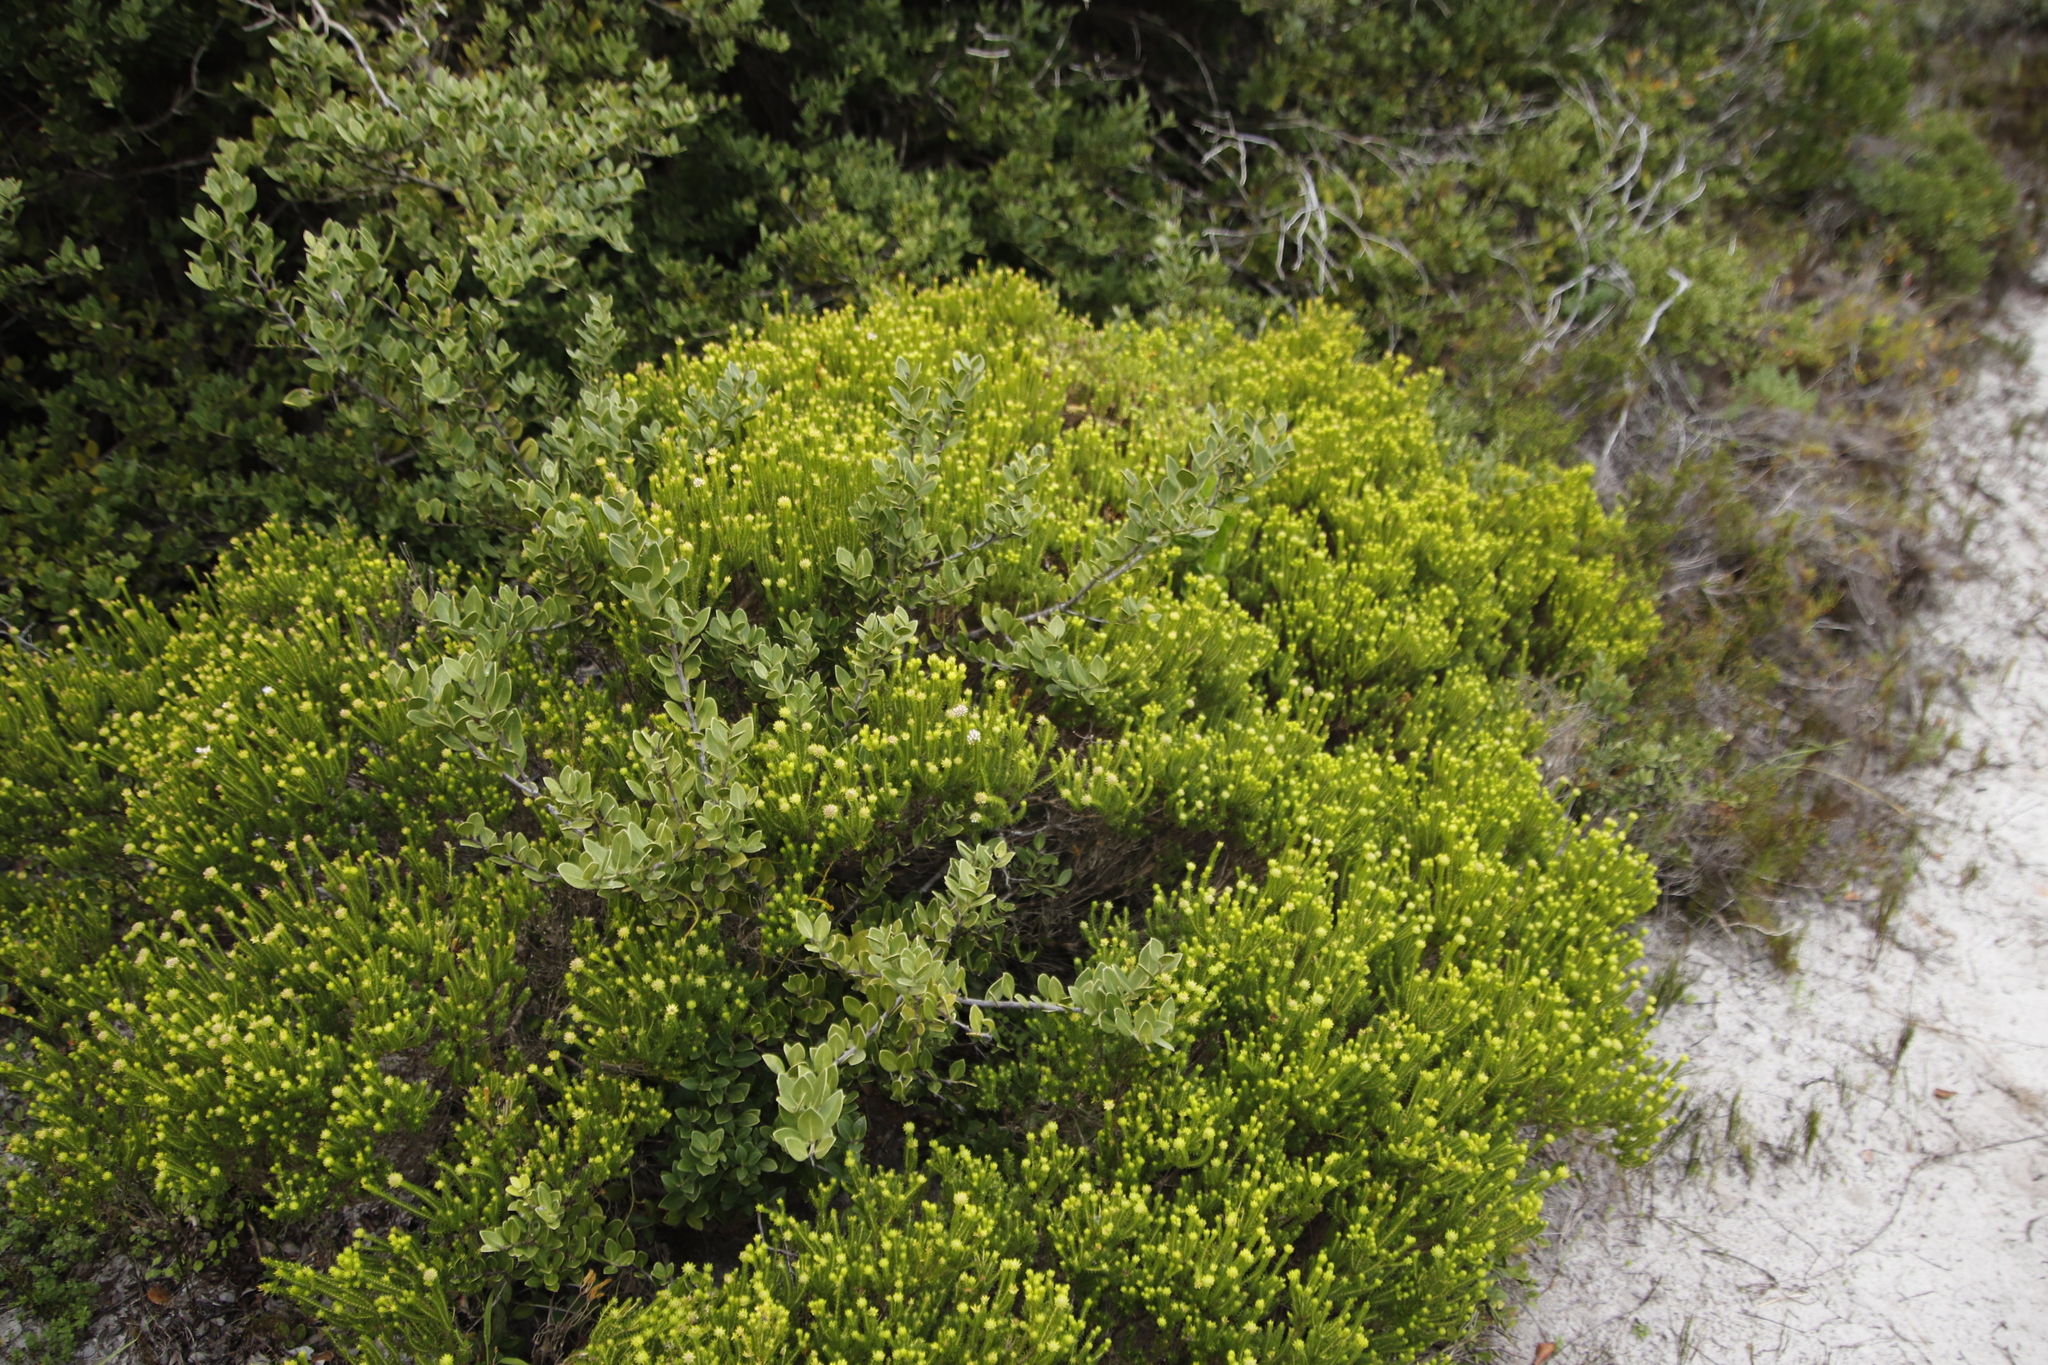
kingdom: Plantae
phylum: Tracheophyta
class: Magnoliopsida
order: Sapindales
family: Rutaceae
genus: Agathosma
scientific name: Agathosma collina
